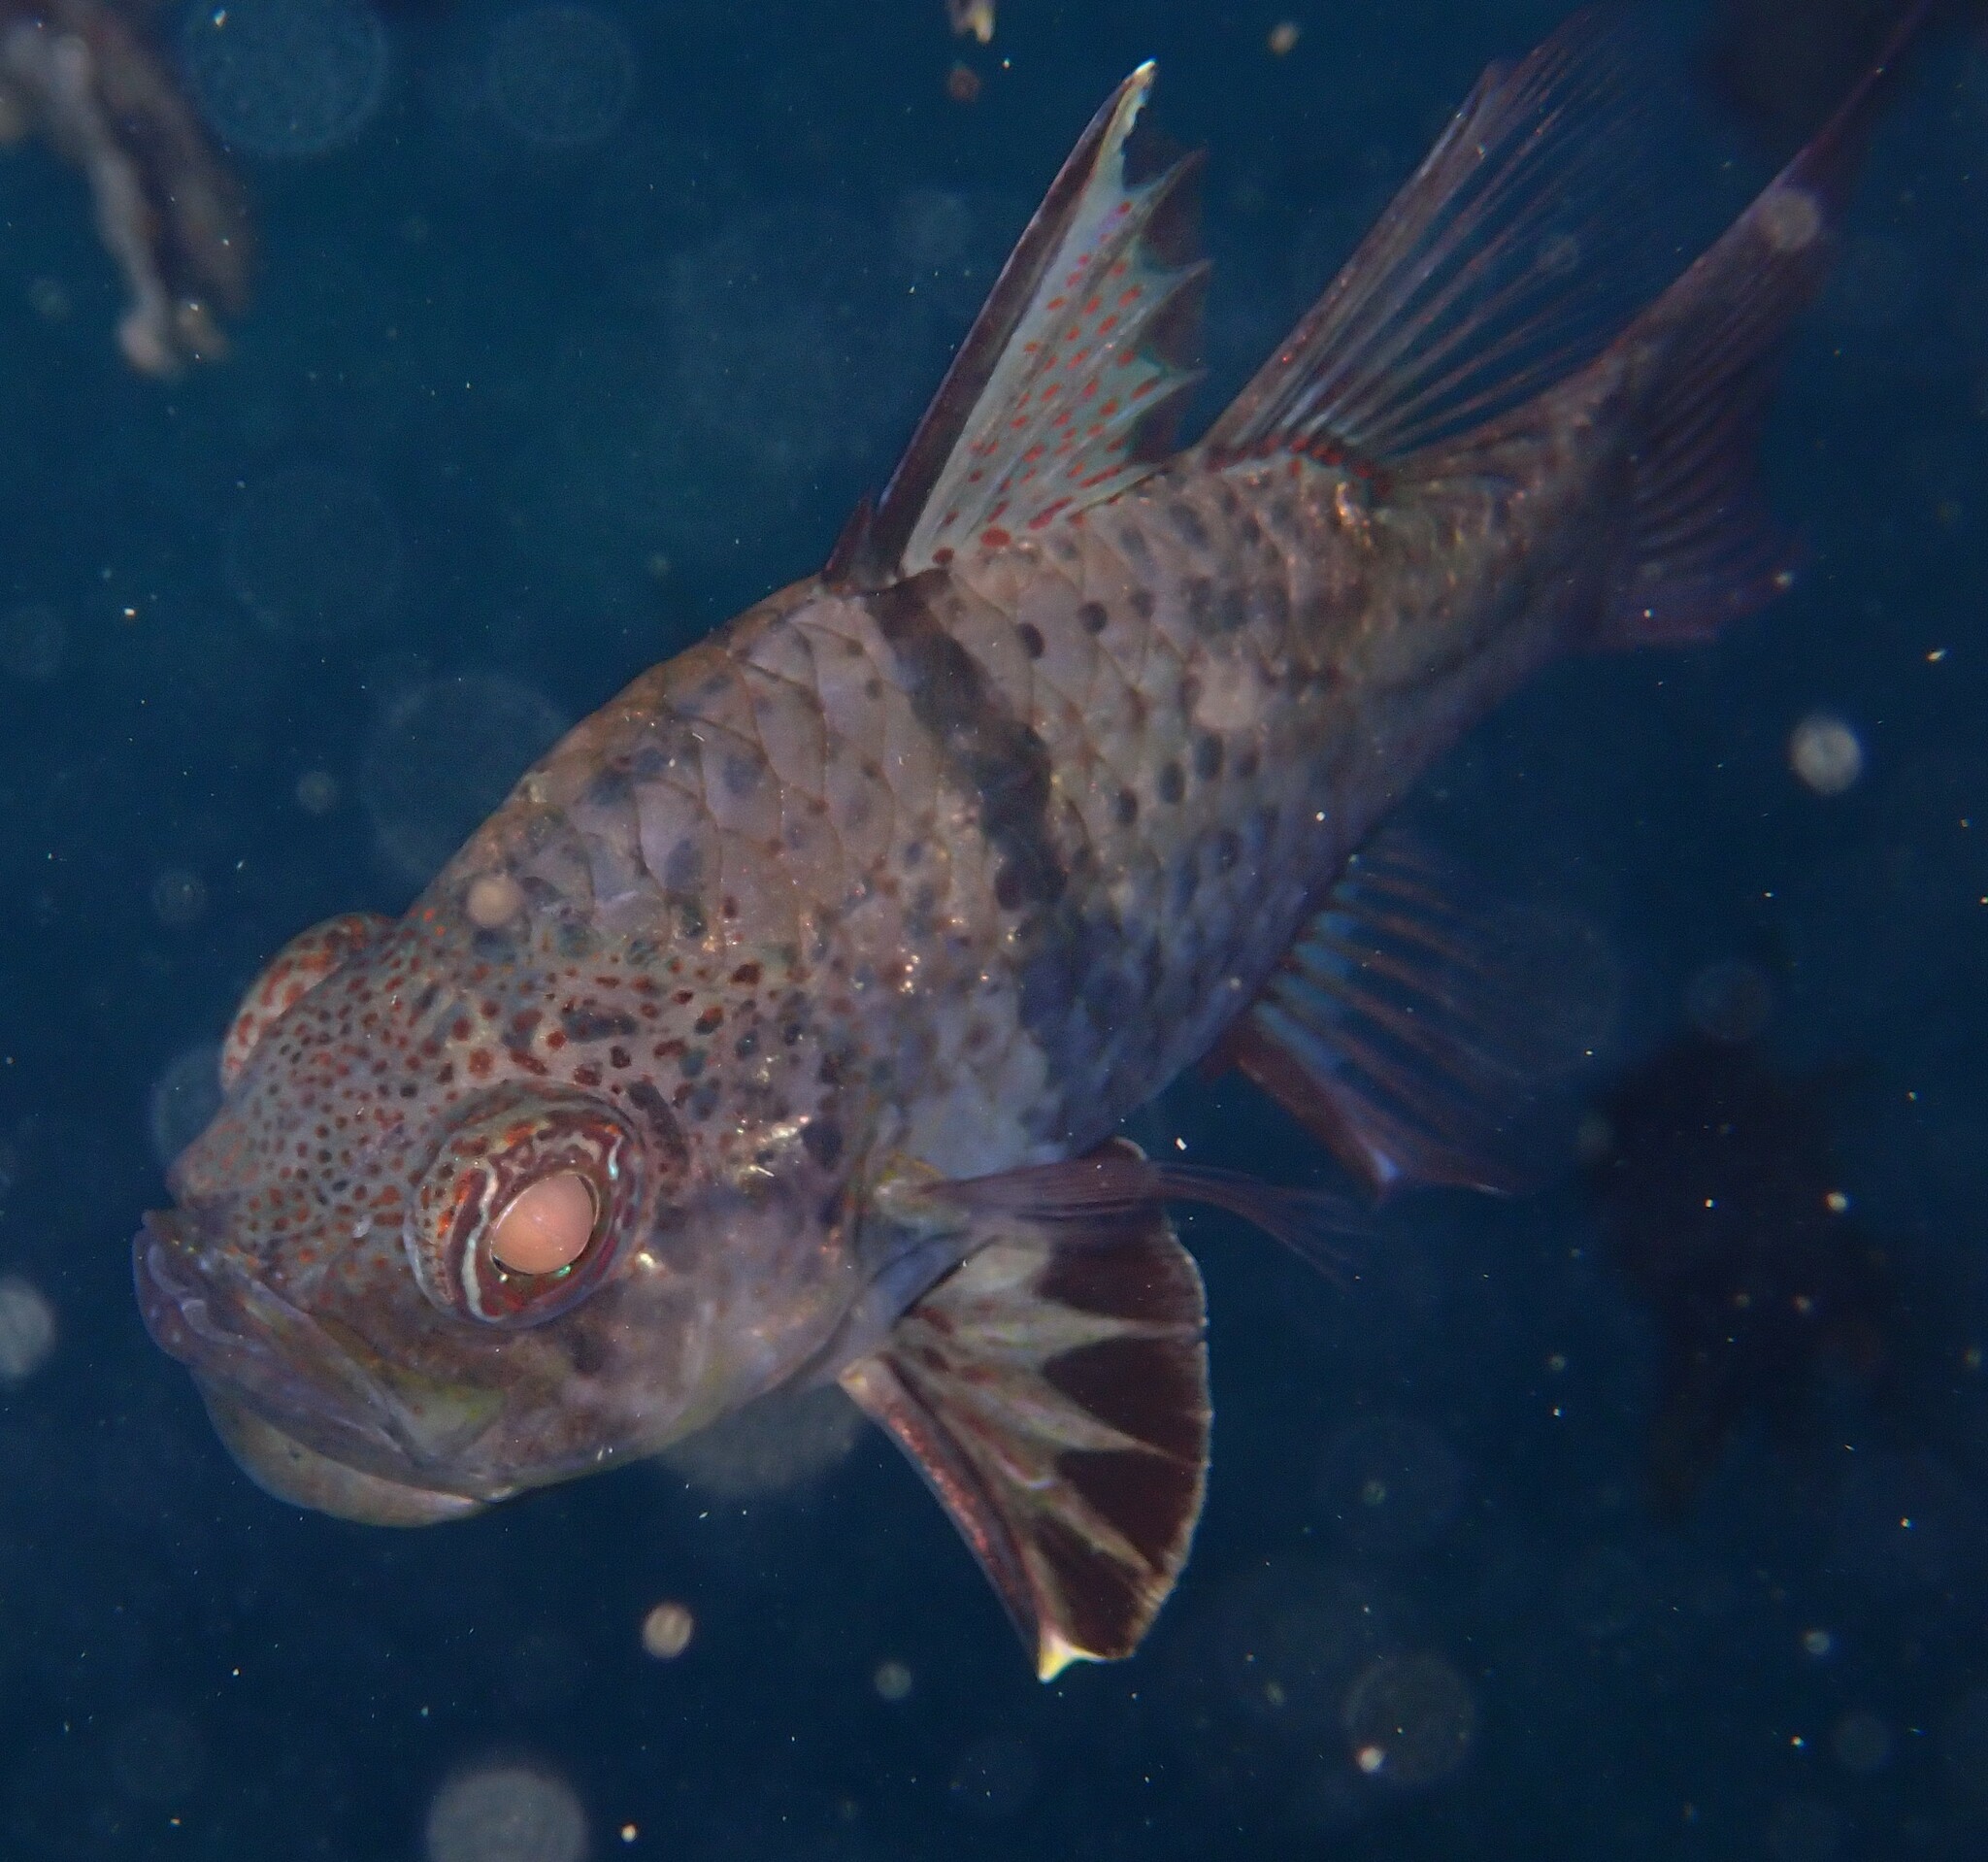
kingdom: Animalia
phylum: Chordata
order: Perciformes
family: Apogonidae
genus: Sphaeramia
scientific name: Sphaeramia orbicularis
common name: Polka-dot cardinalfish
